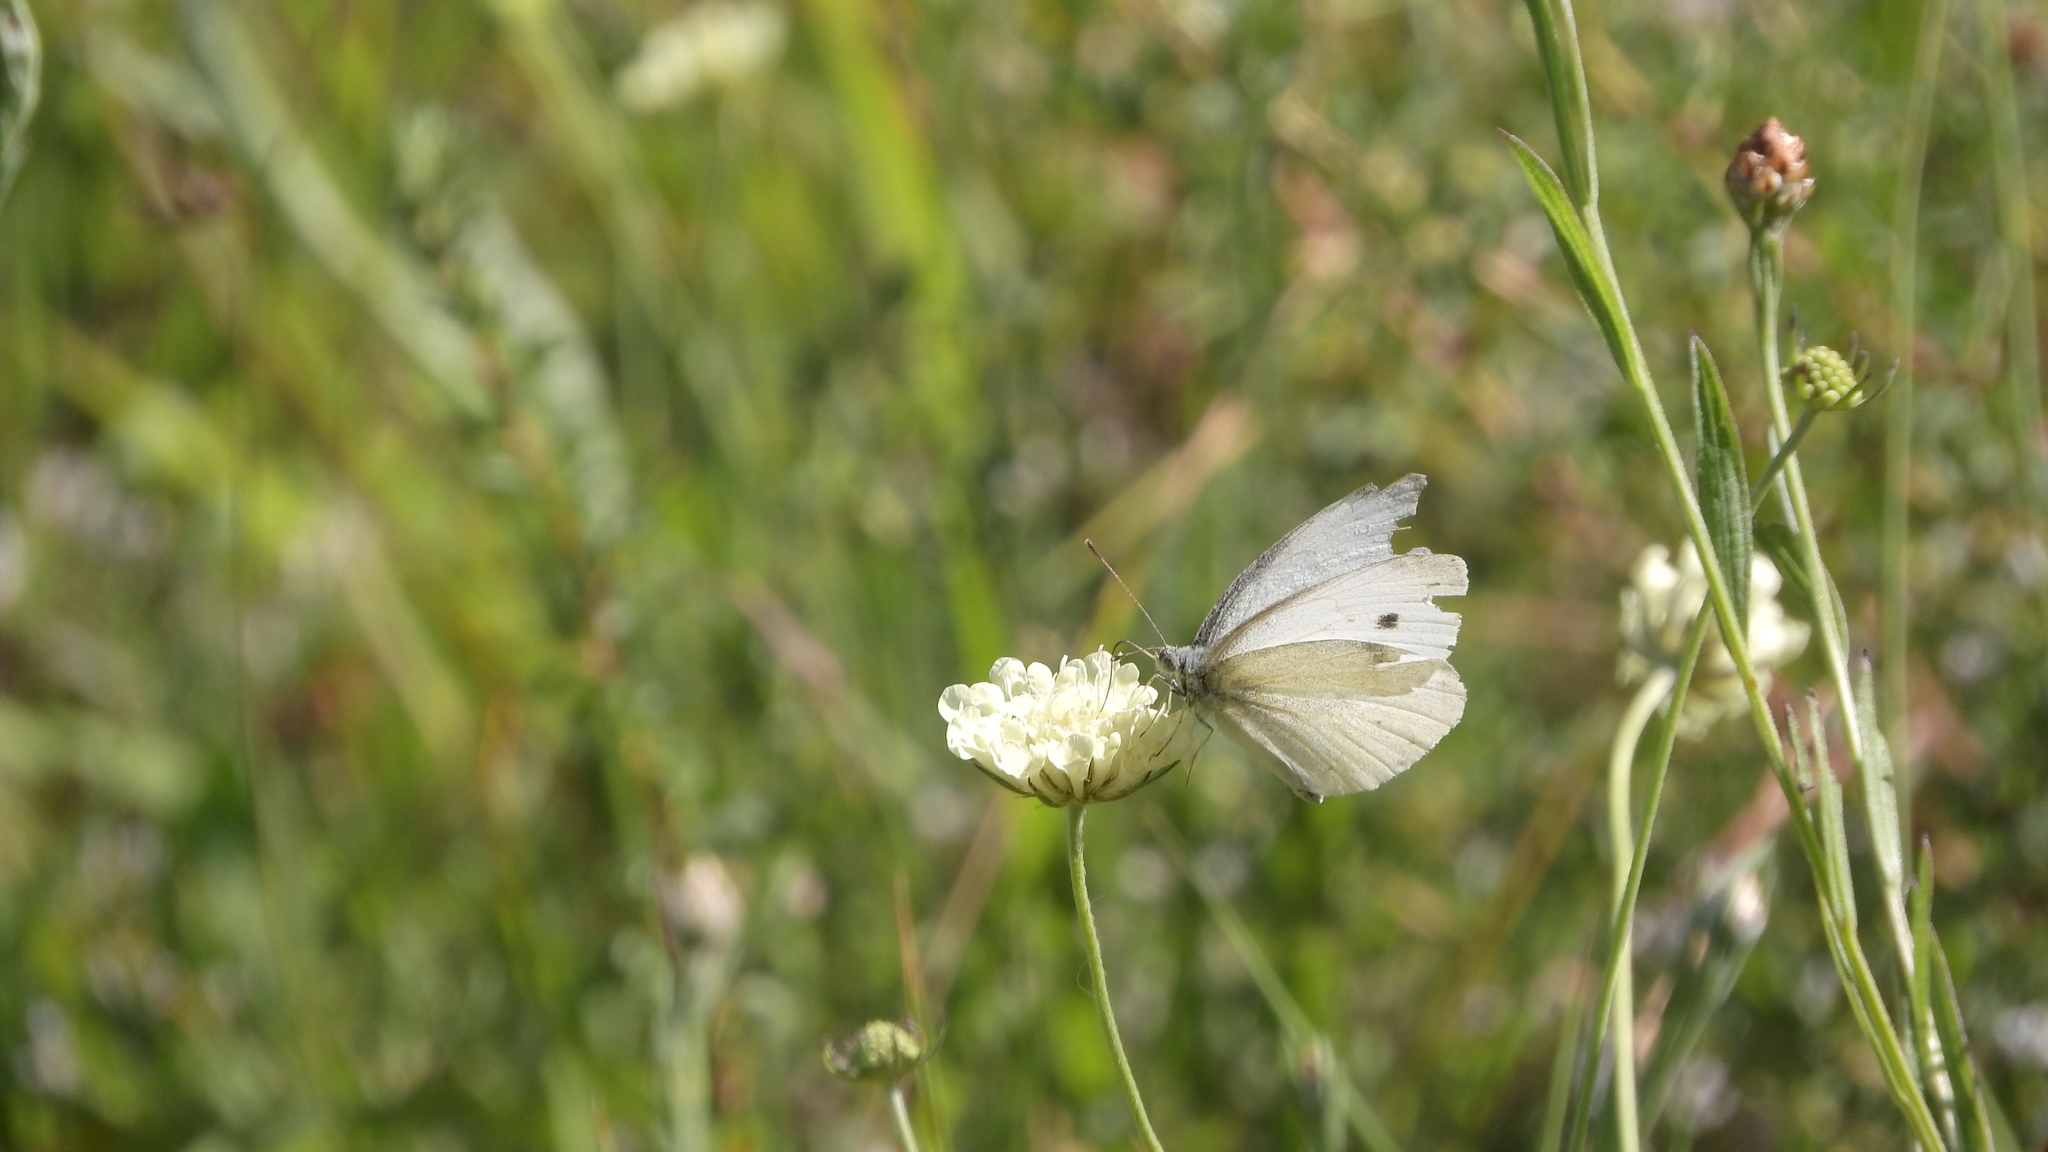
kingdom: Animalia
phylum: Arthropoda
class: Insecta
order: Lepidoptera
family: Pieridae
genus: Pieris
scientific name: Pieris rapae
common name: Small white
